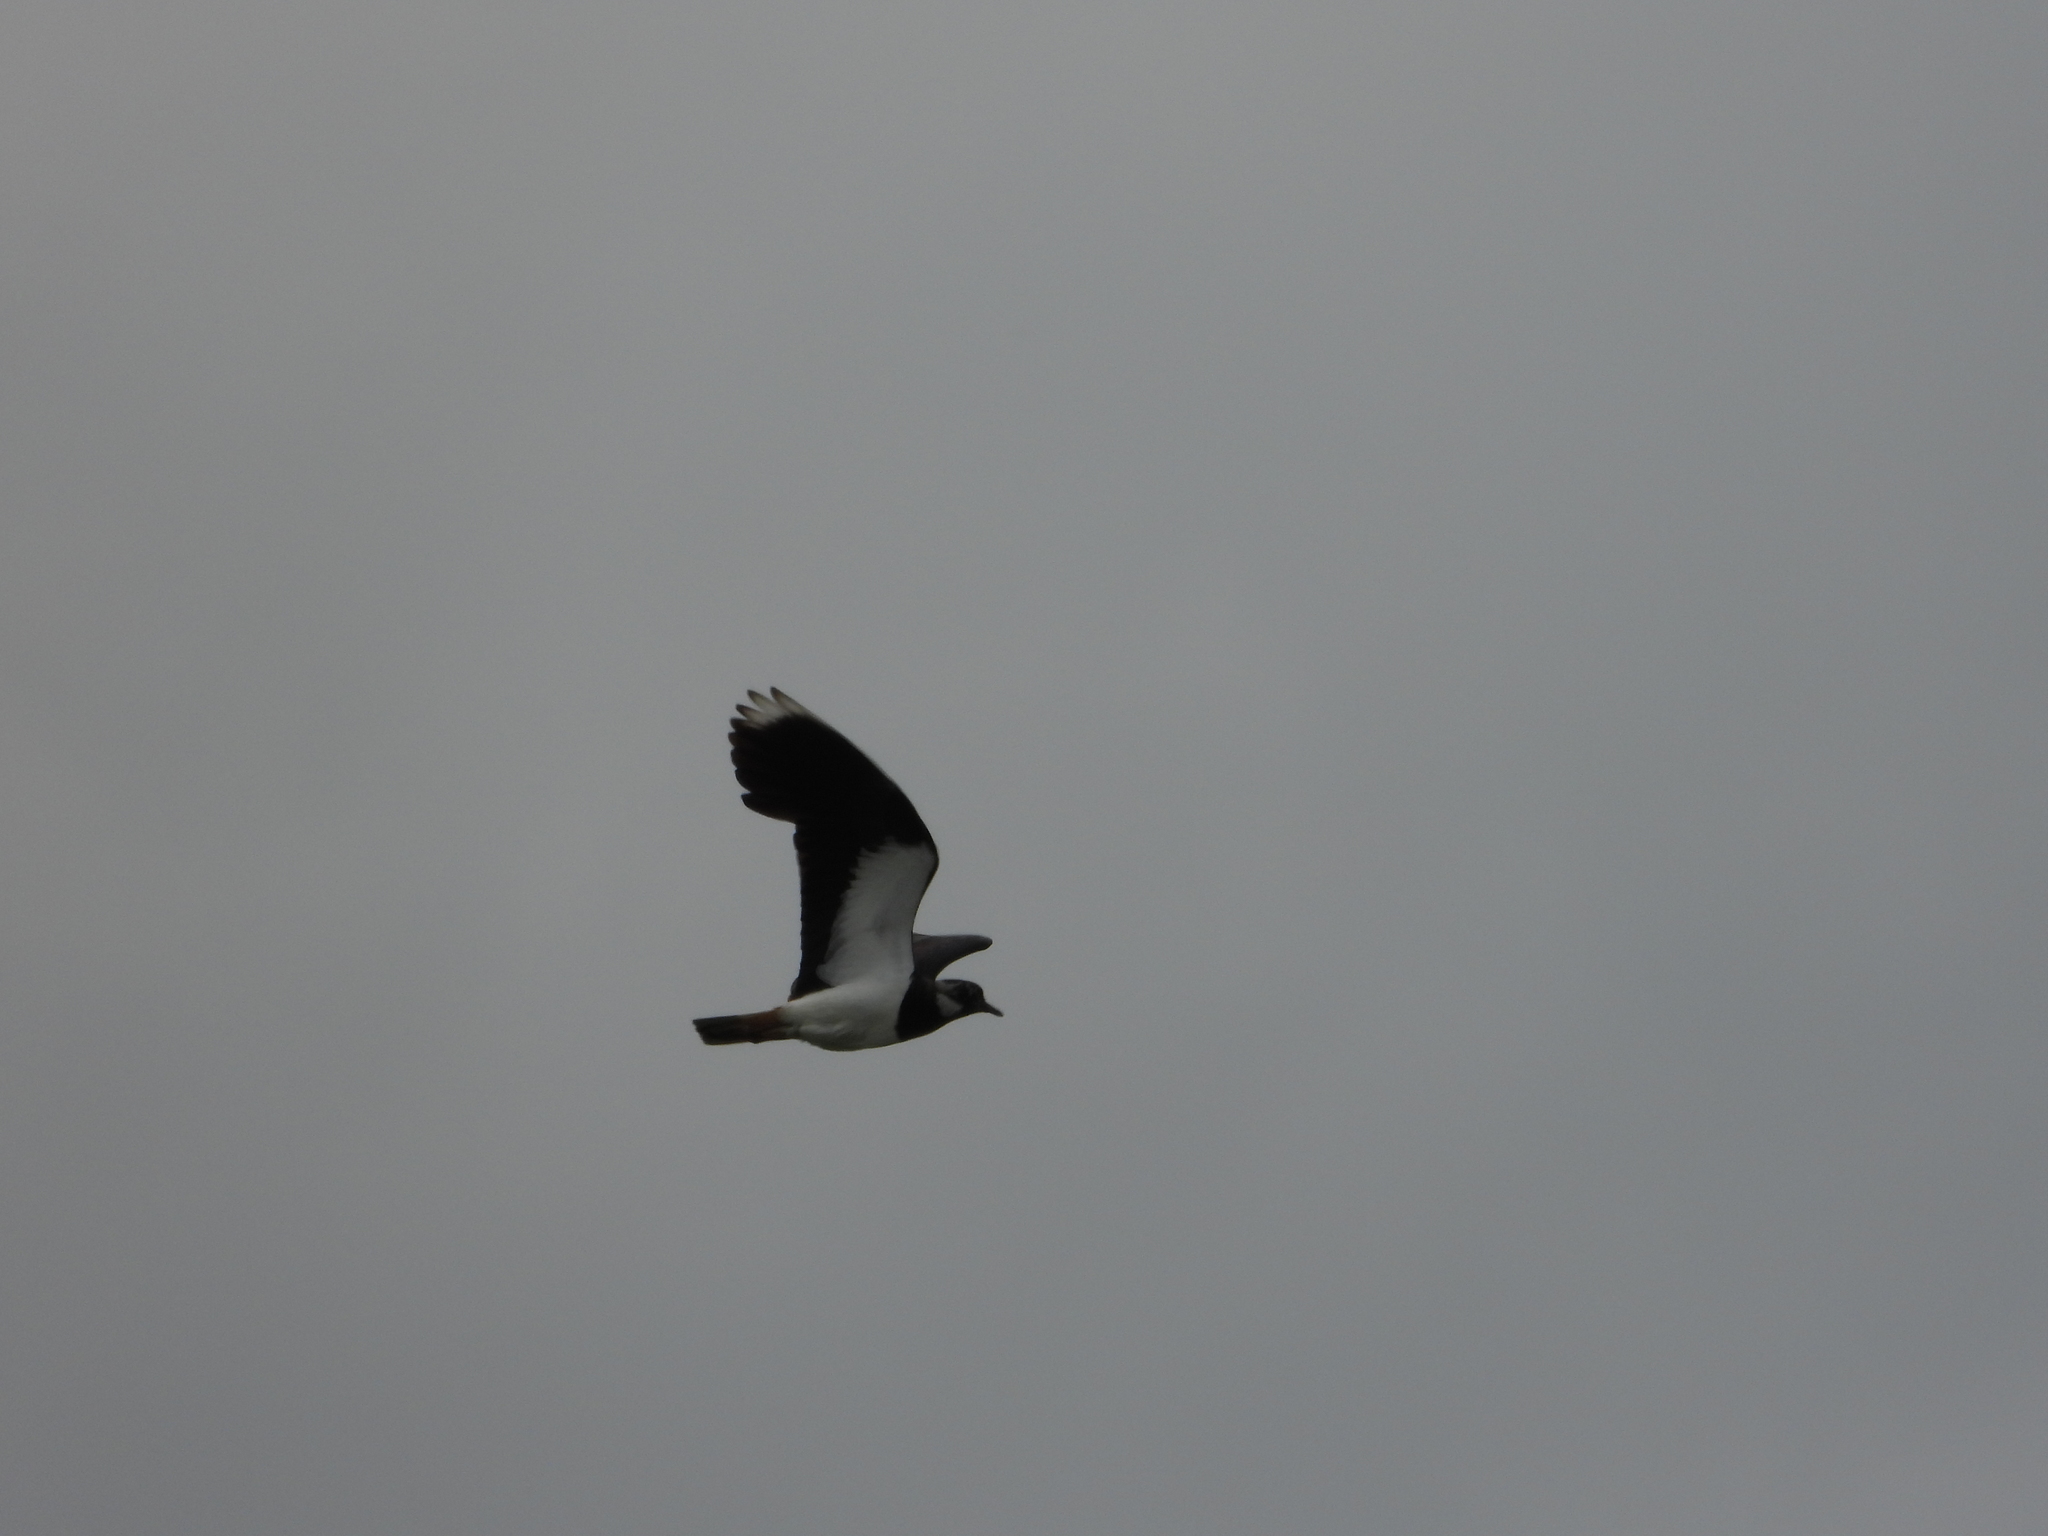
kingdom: Animalia
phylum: Chordata
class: Aves
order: Charadriiformes
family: Charadriidae
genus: Vanellus
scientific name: Vanellus vanellus
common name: Northern lapwing
